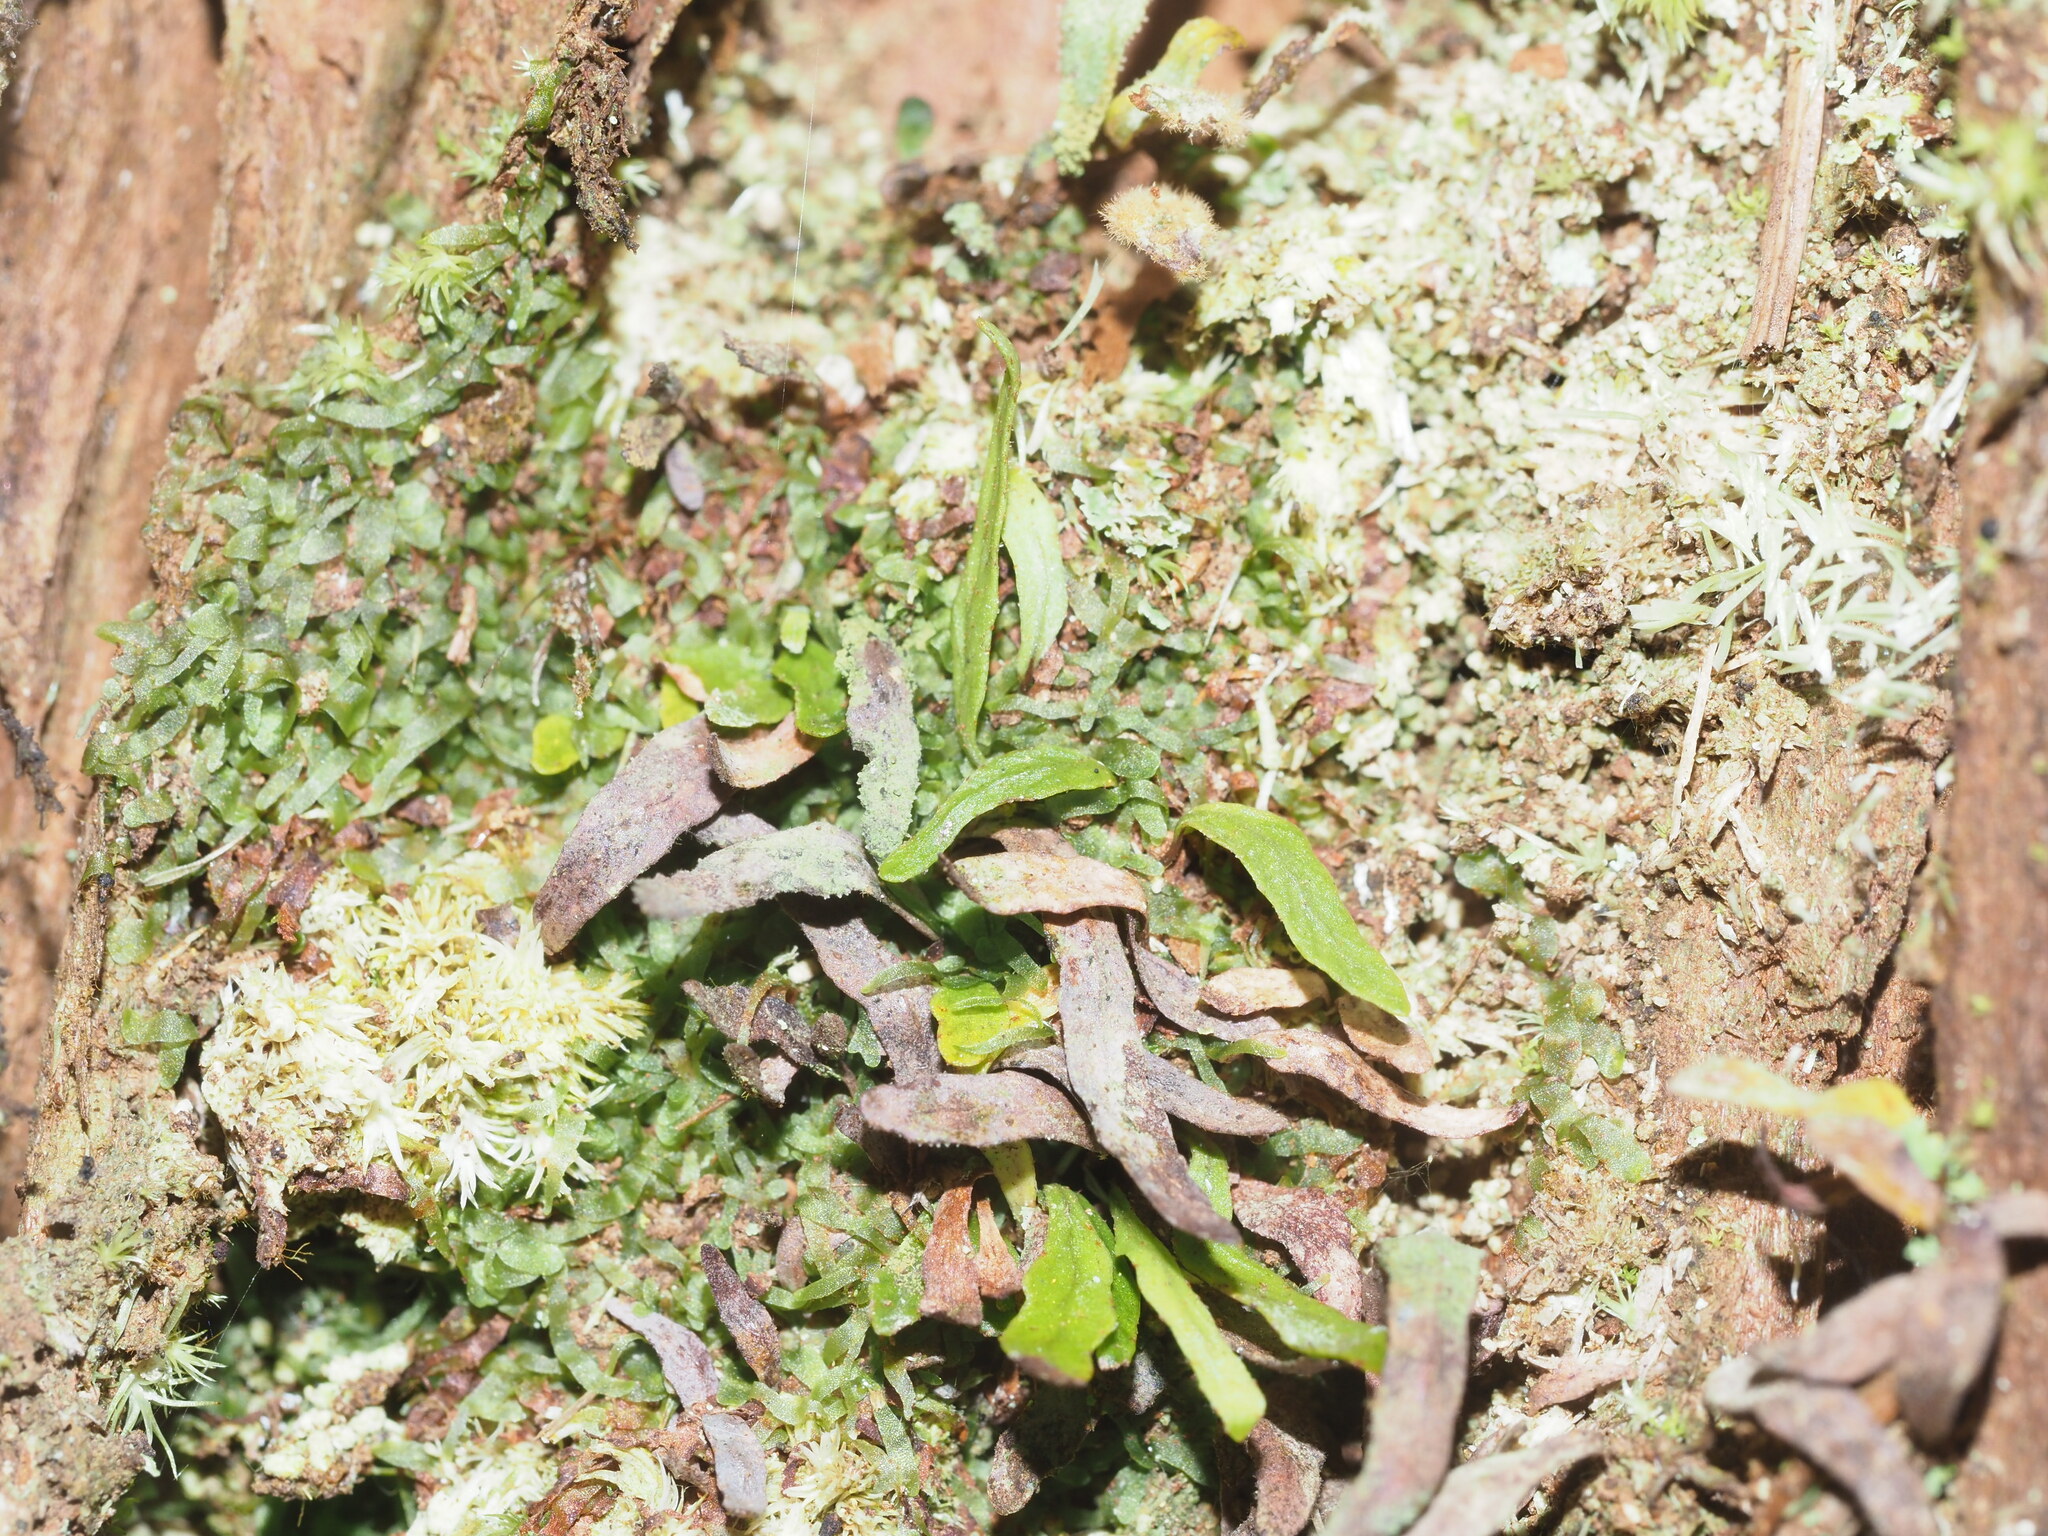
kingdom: Plantae
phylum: Tracheophyta
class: Polypodiopsida
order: Polypodiales
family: Polypodiaceae
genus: Adenophorus
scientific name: Adenophorus tenellus
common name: Kolokolo
